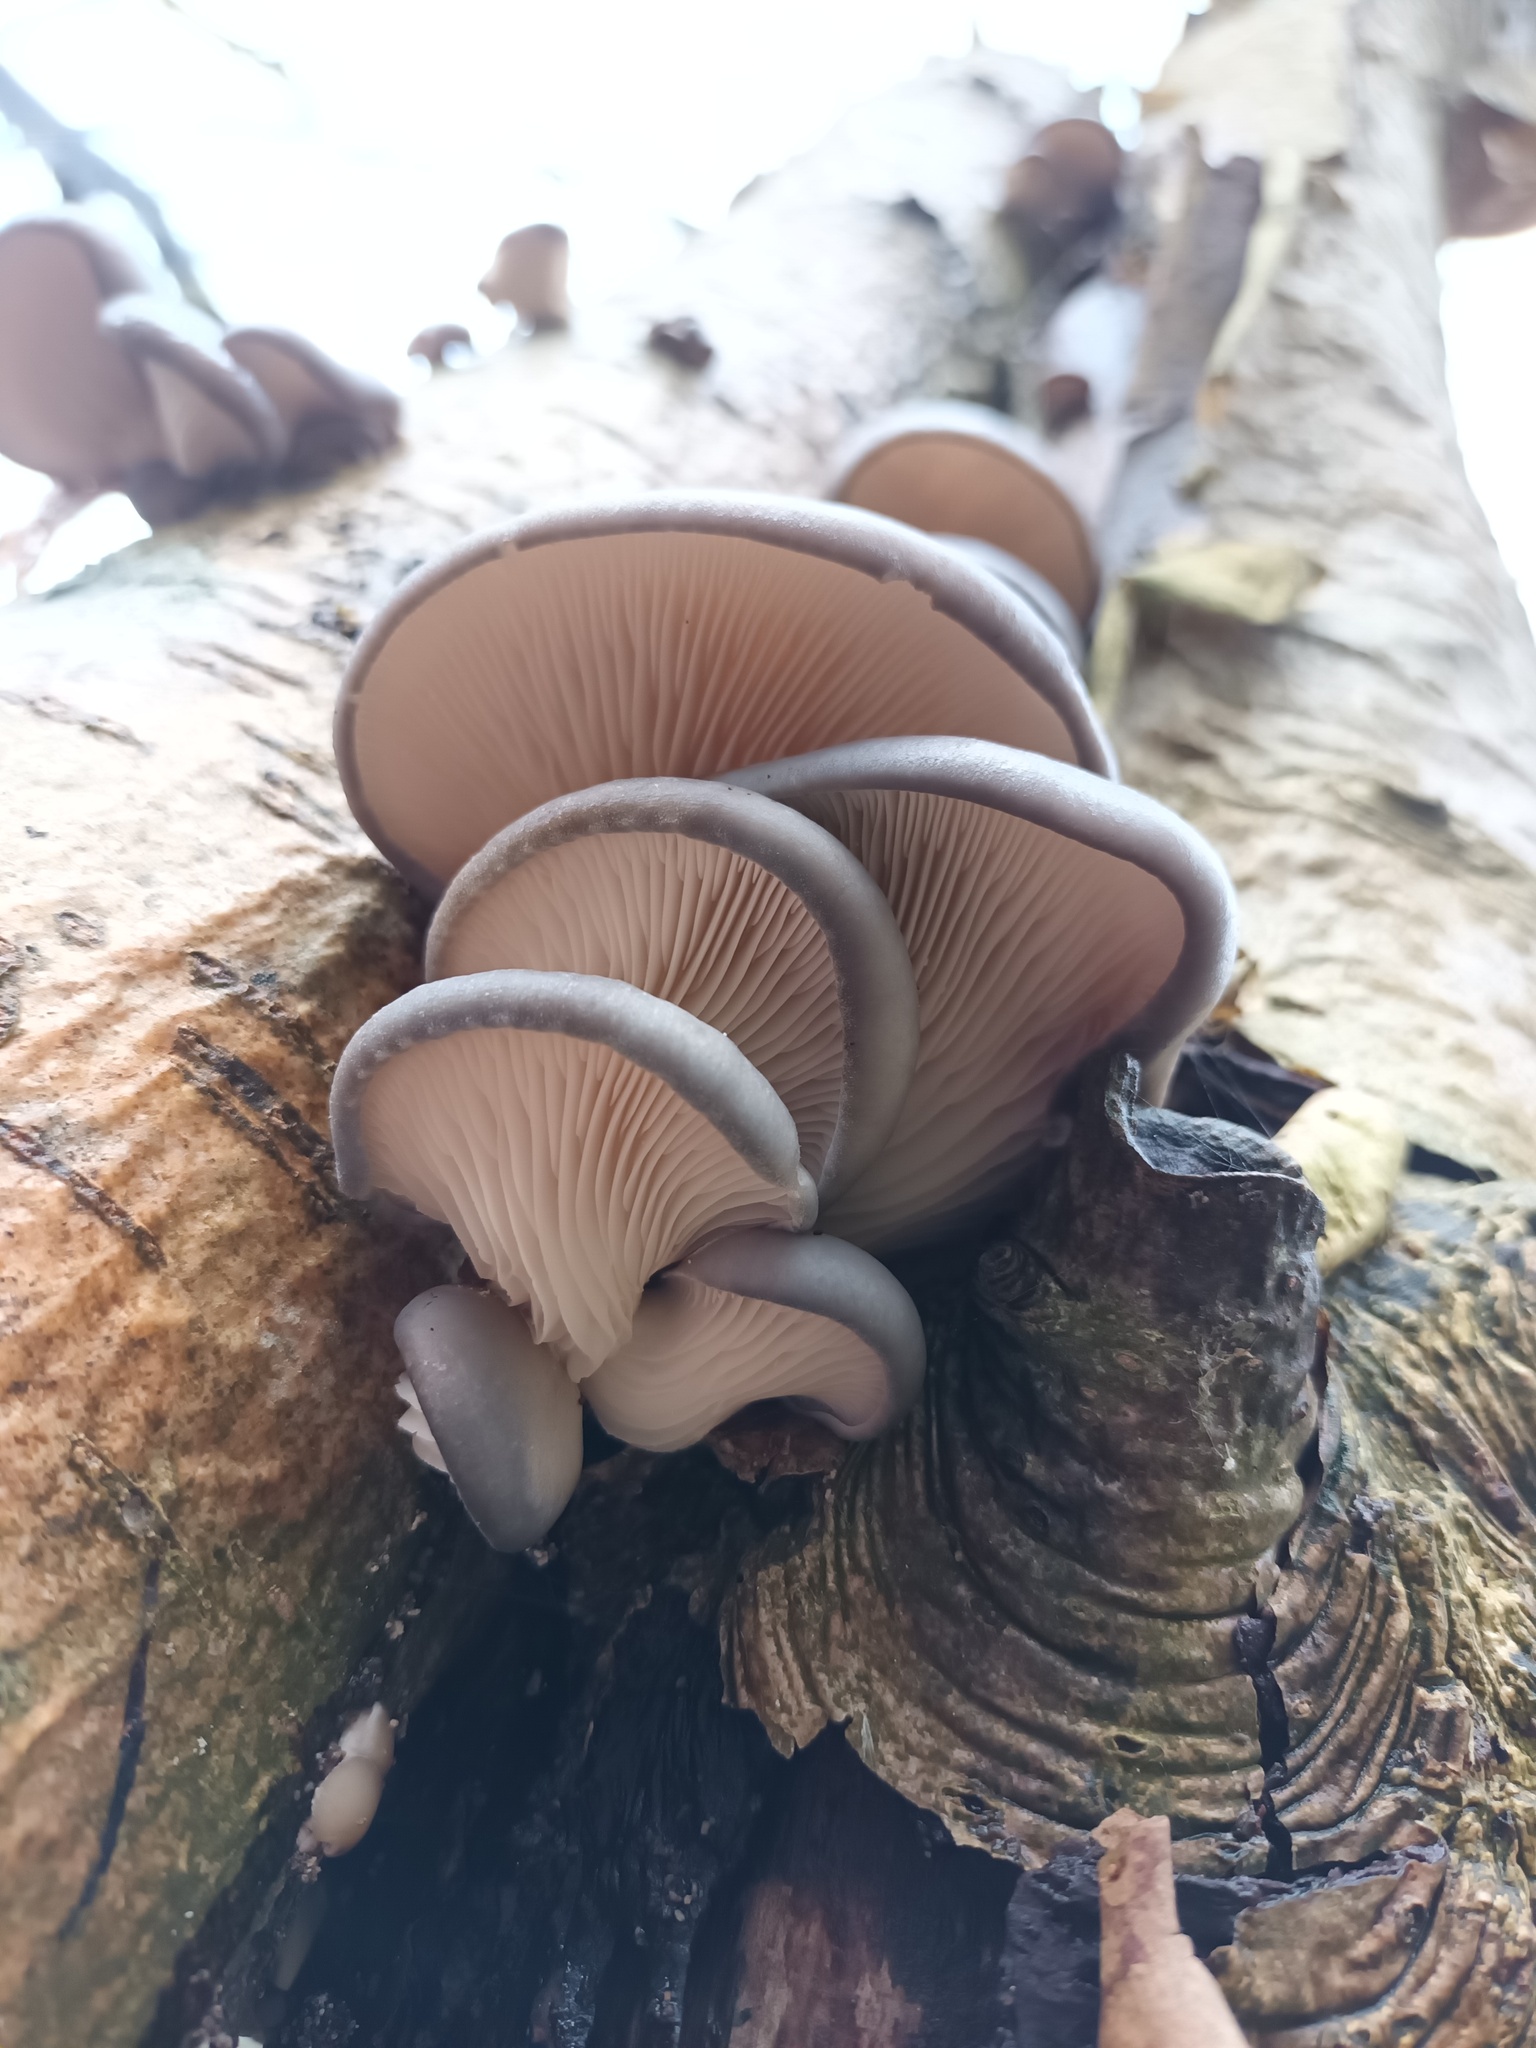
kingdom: Fungi
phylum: Basidiomycota
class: Agaricomycetes
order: Agaricales
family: Pleurotaceae
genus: Pleurotus
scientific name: Pleurotus ostreatus
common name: Oyster mushroom
